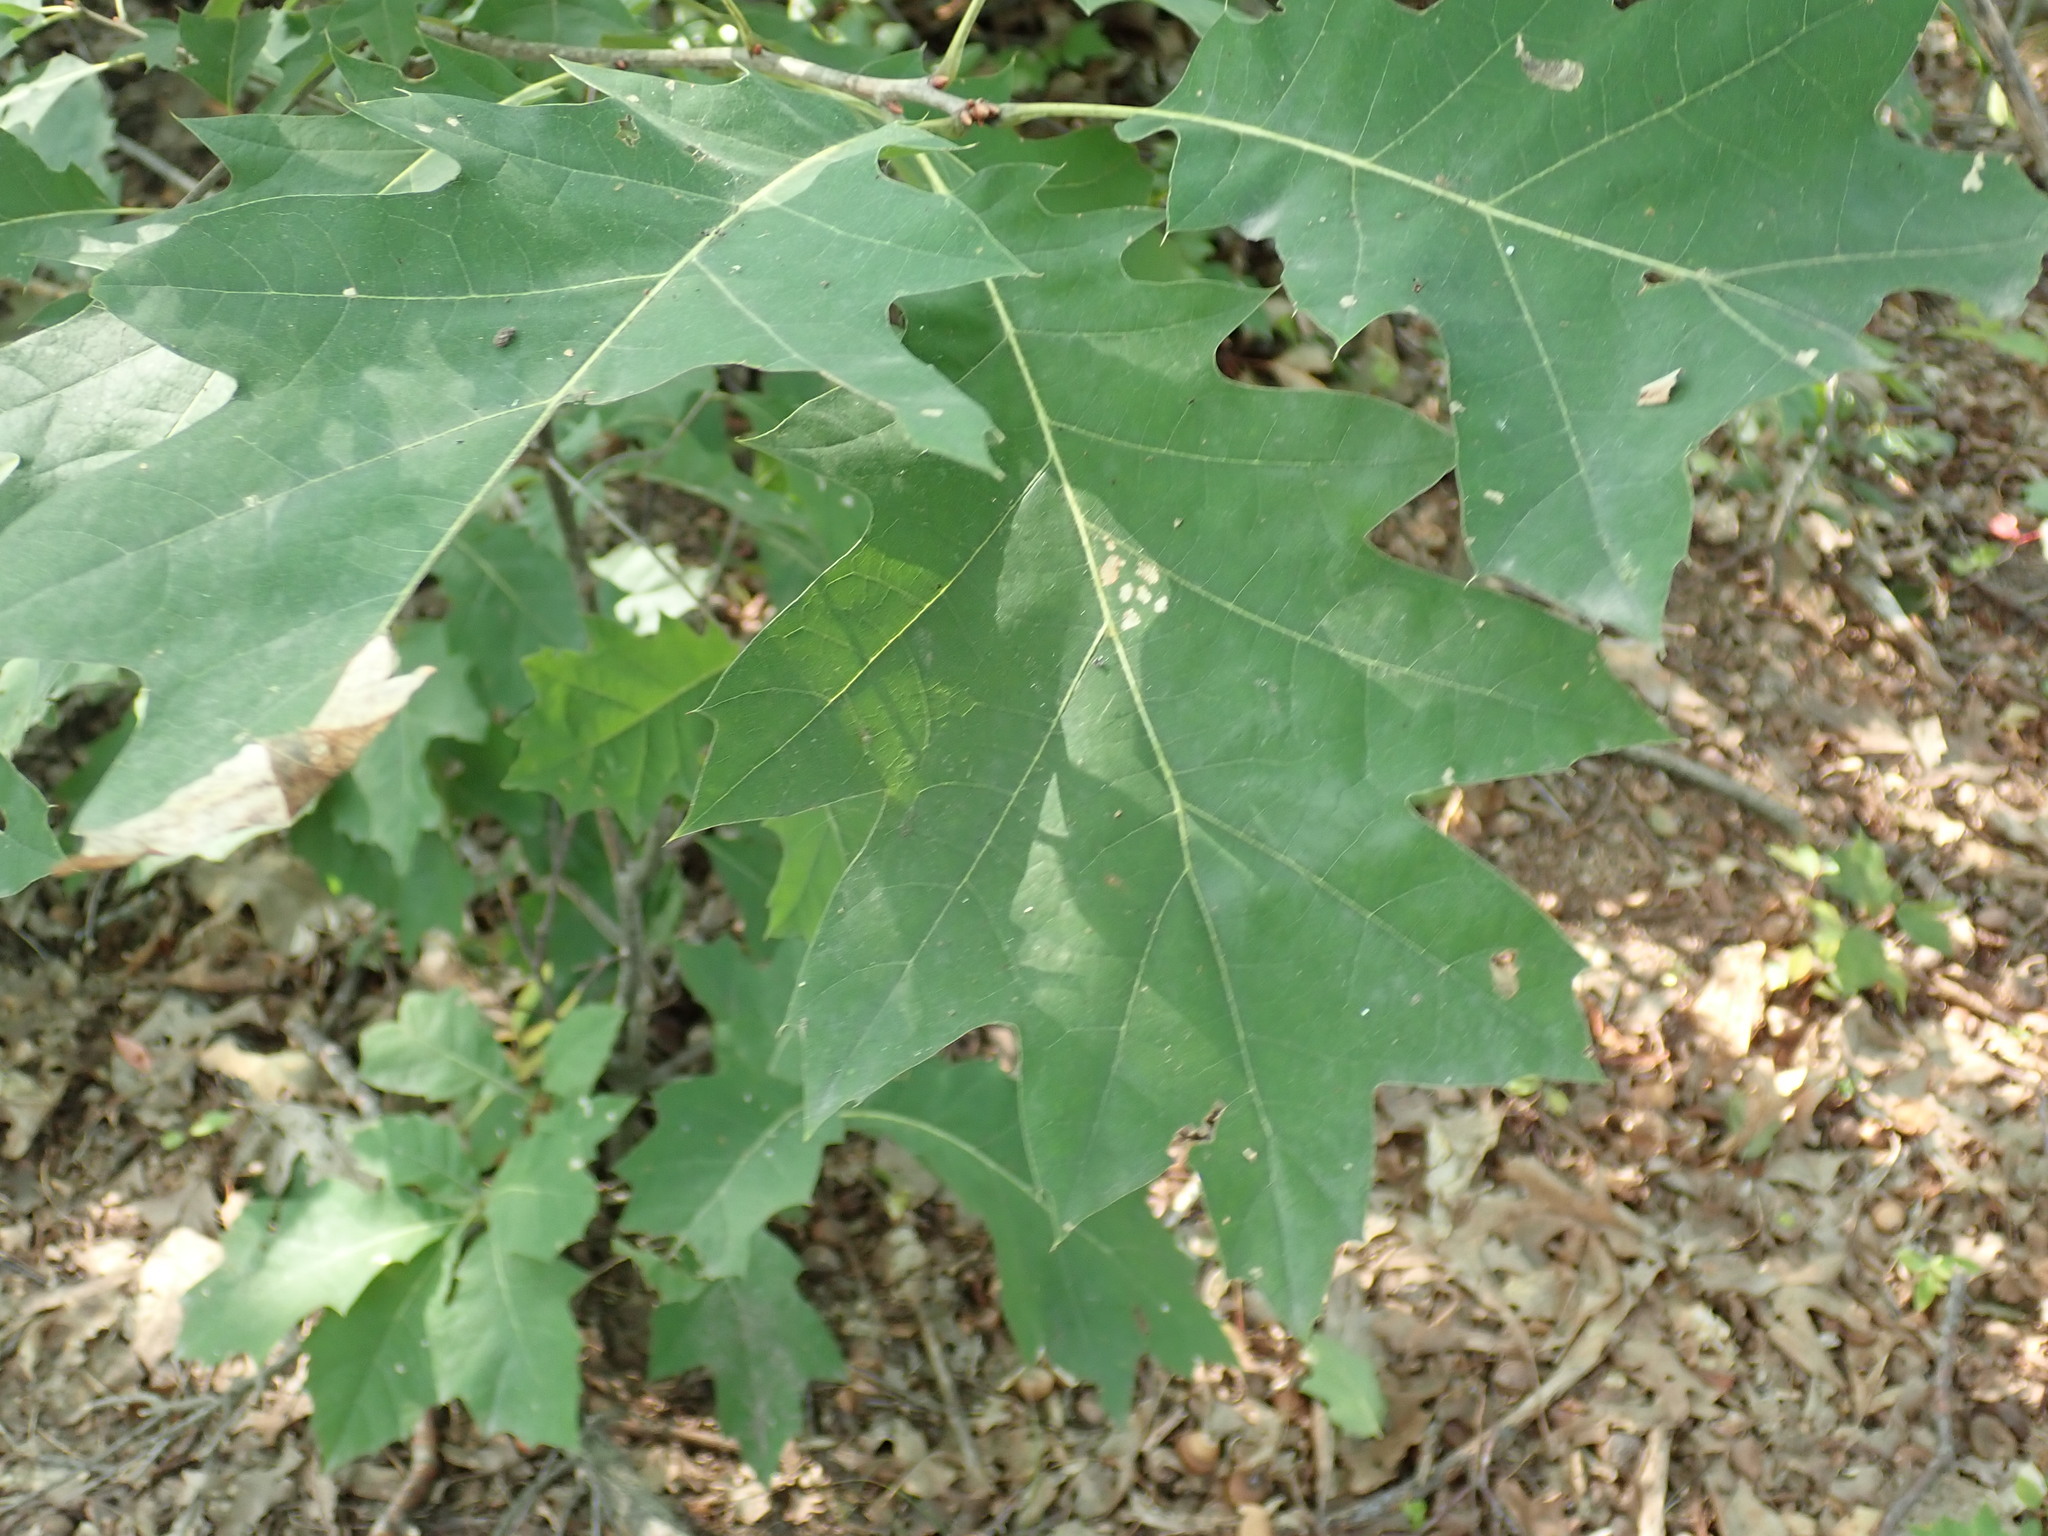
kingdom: Plantae
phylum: Tracheophyta
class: Magnoliopsida
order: Fagales
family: Fagaceae
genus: Quercus
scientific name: Quercus rubra
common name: Red oak
